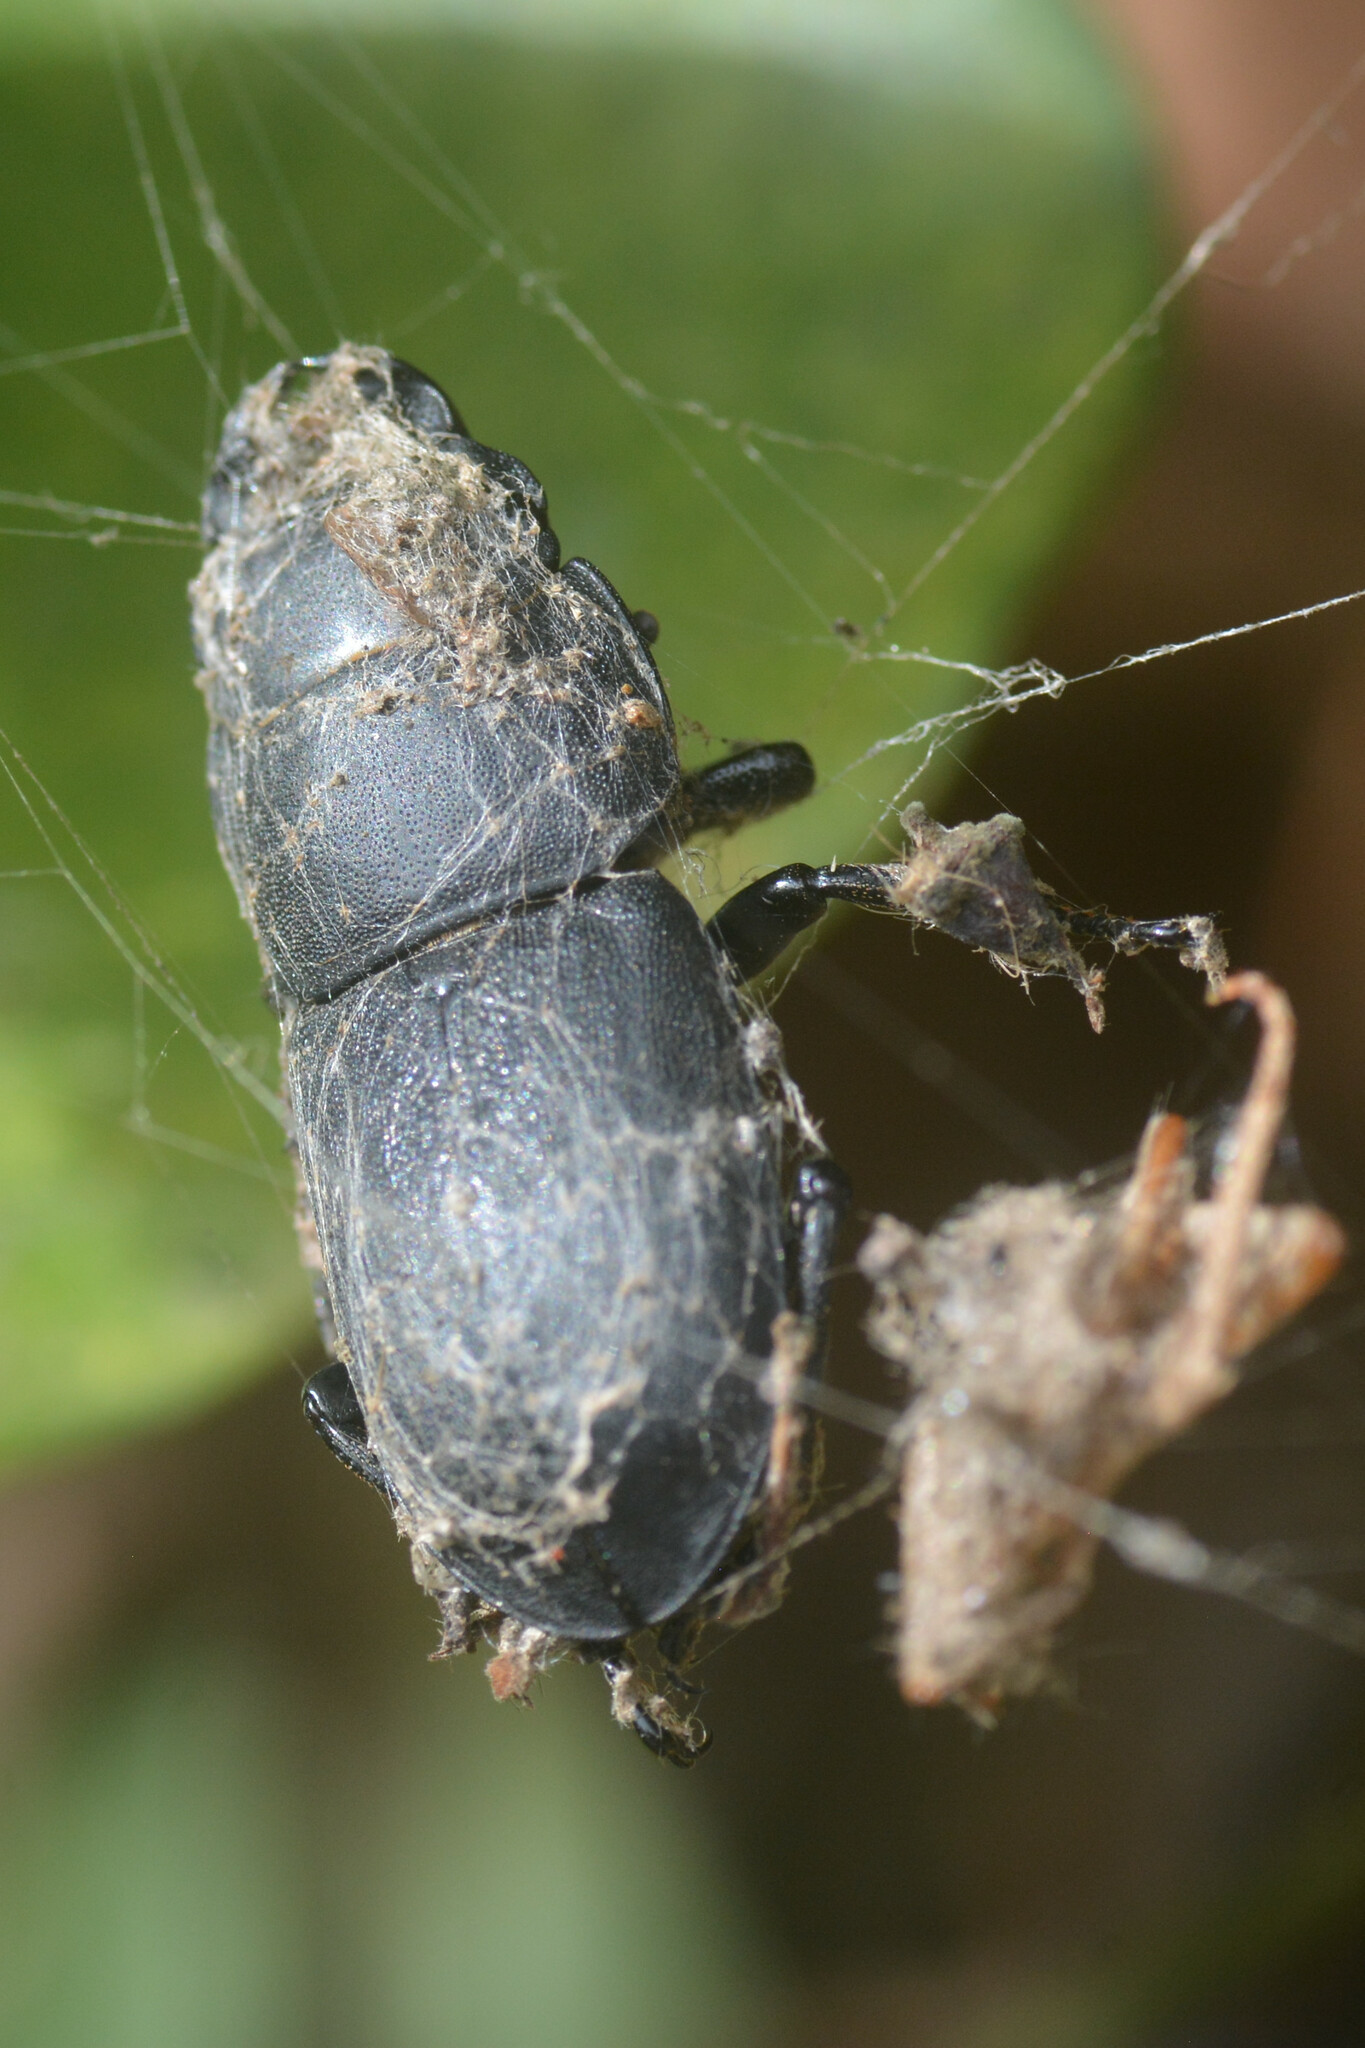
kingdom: Animalia
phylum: Arthropoda
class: Insecta
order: Coleoptera
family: Lucanidae
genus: Dorcus
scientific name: Dorcus parallelipipedus
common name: Lesser stag beetle
